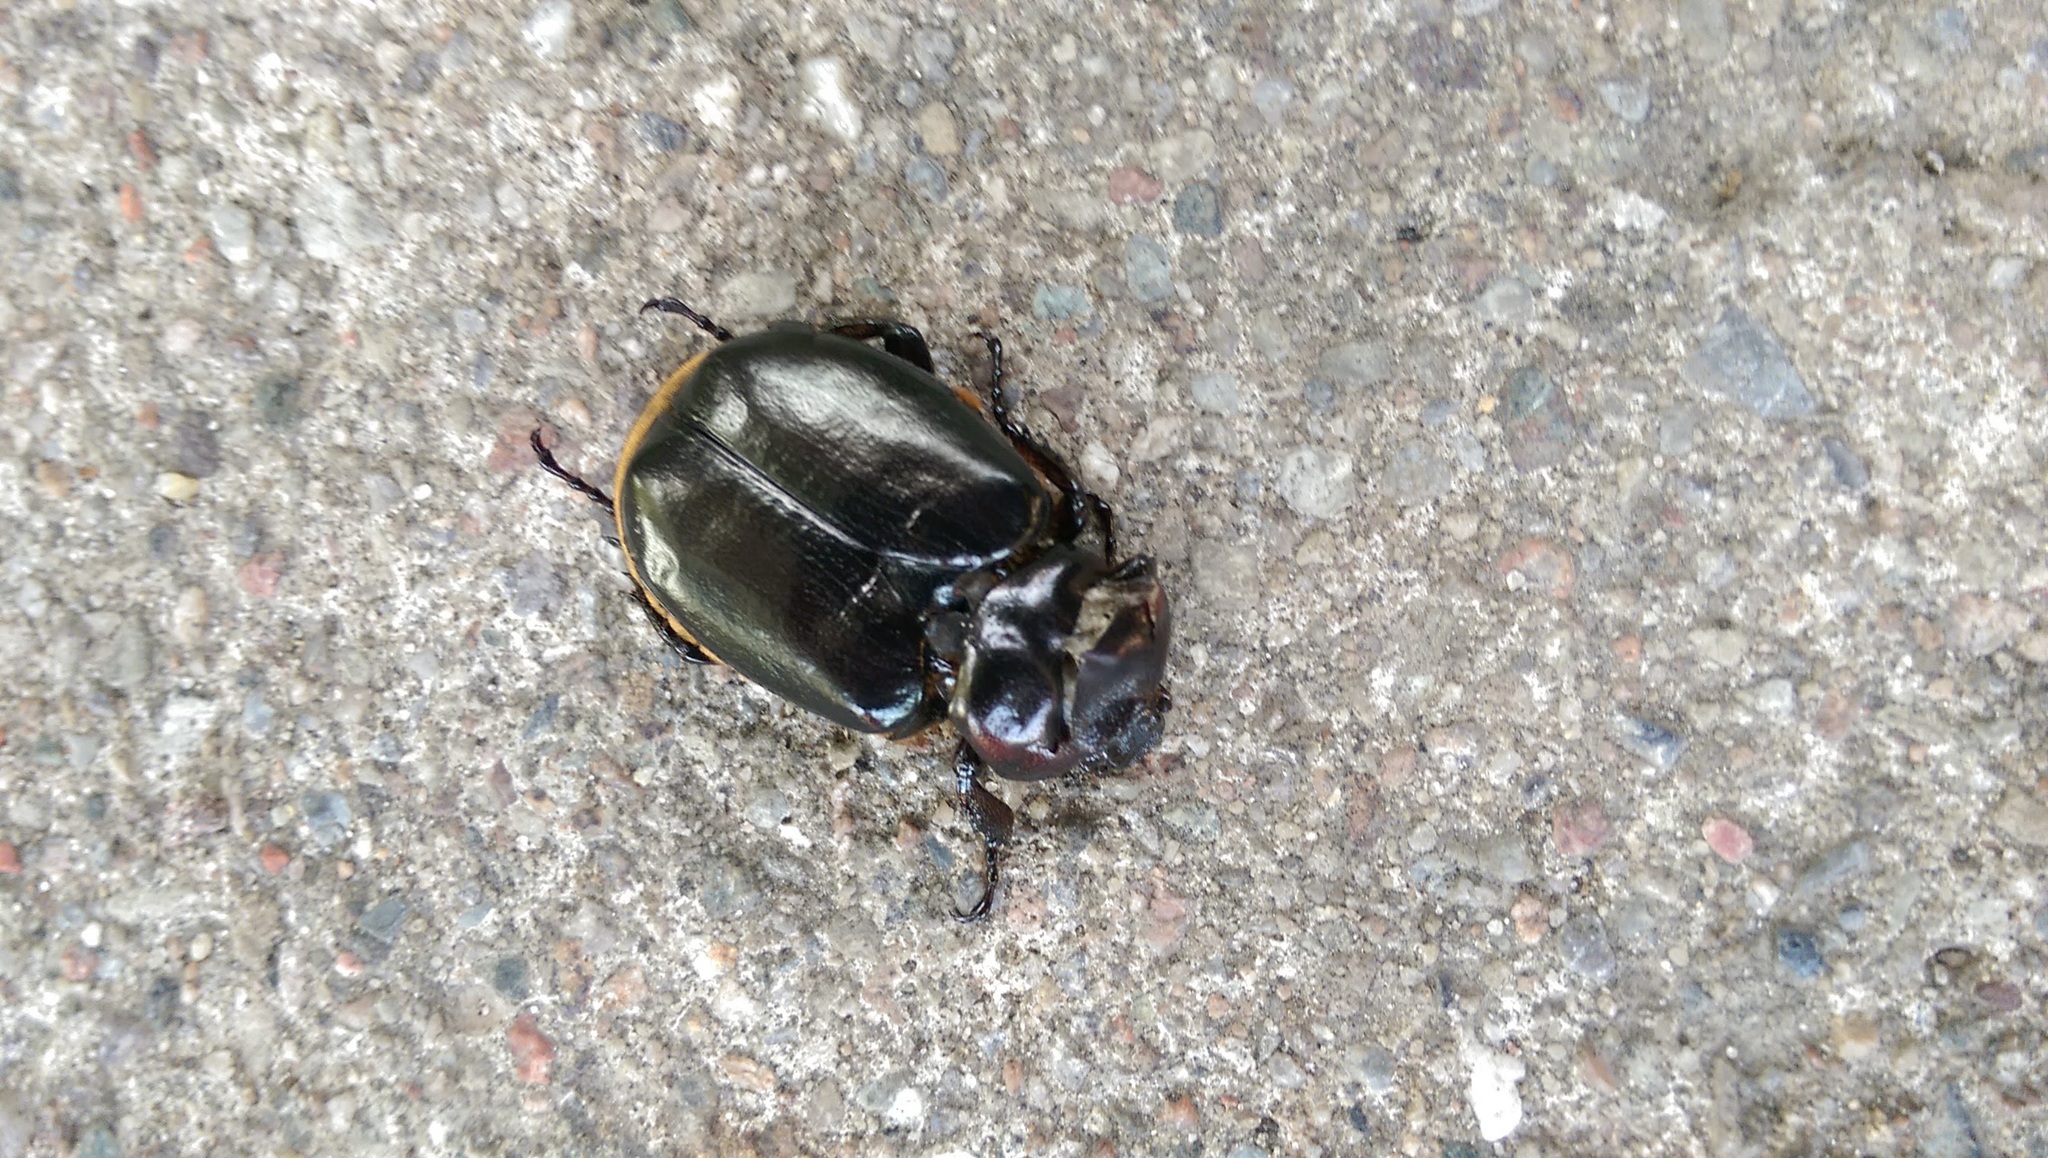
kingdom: Animalia
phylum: Arthropoda
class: Insecta
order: Coleoptera
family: Scarabaeidae
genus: Osmoderma
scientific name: Osmoderma eremicola
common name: Hermit flower beetle
